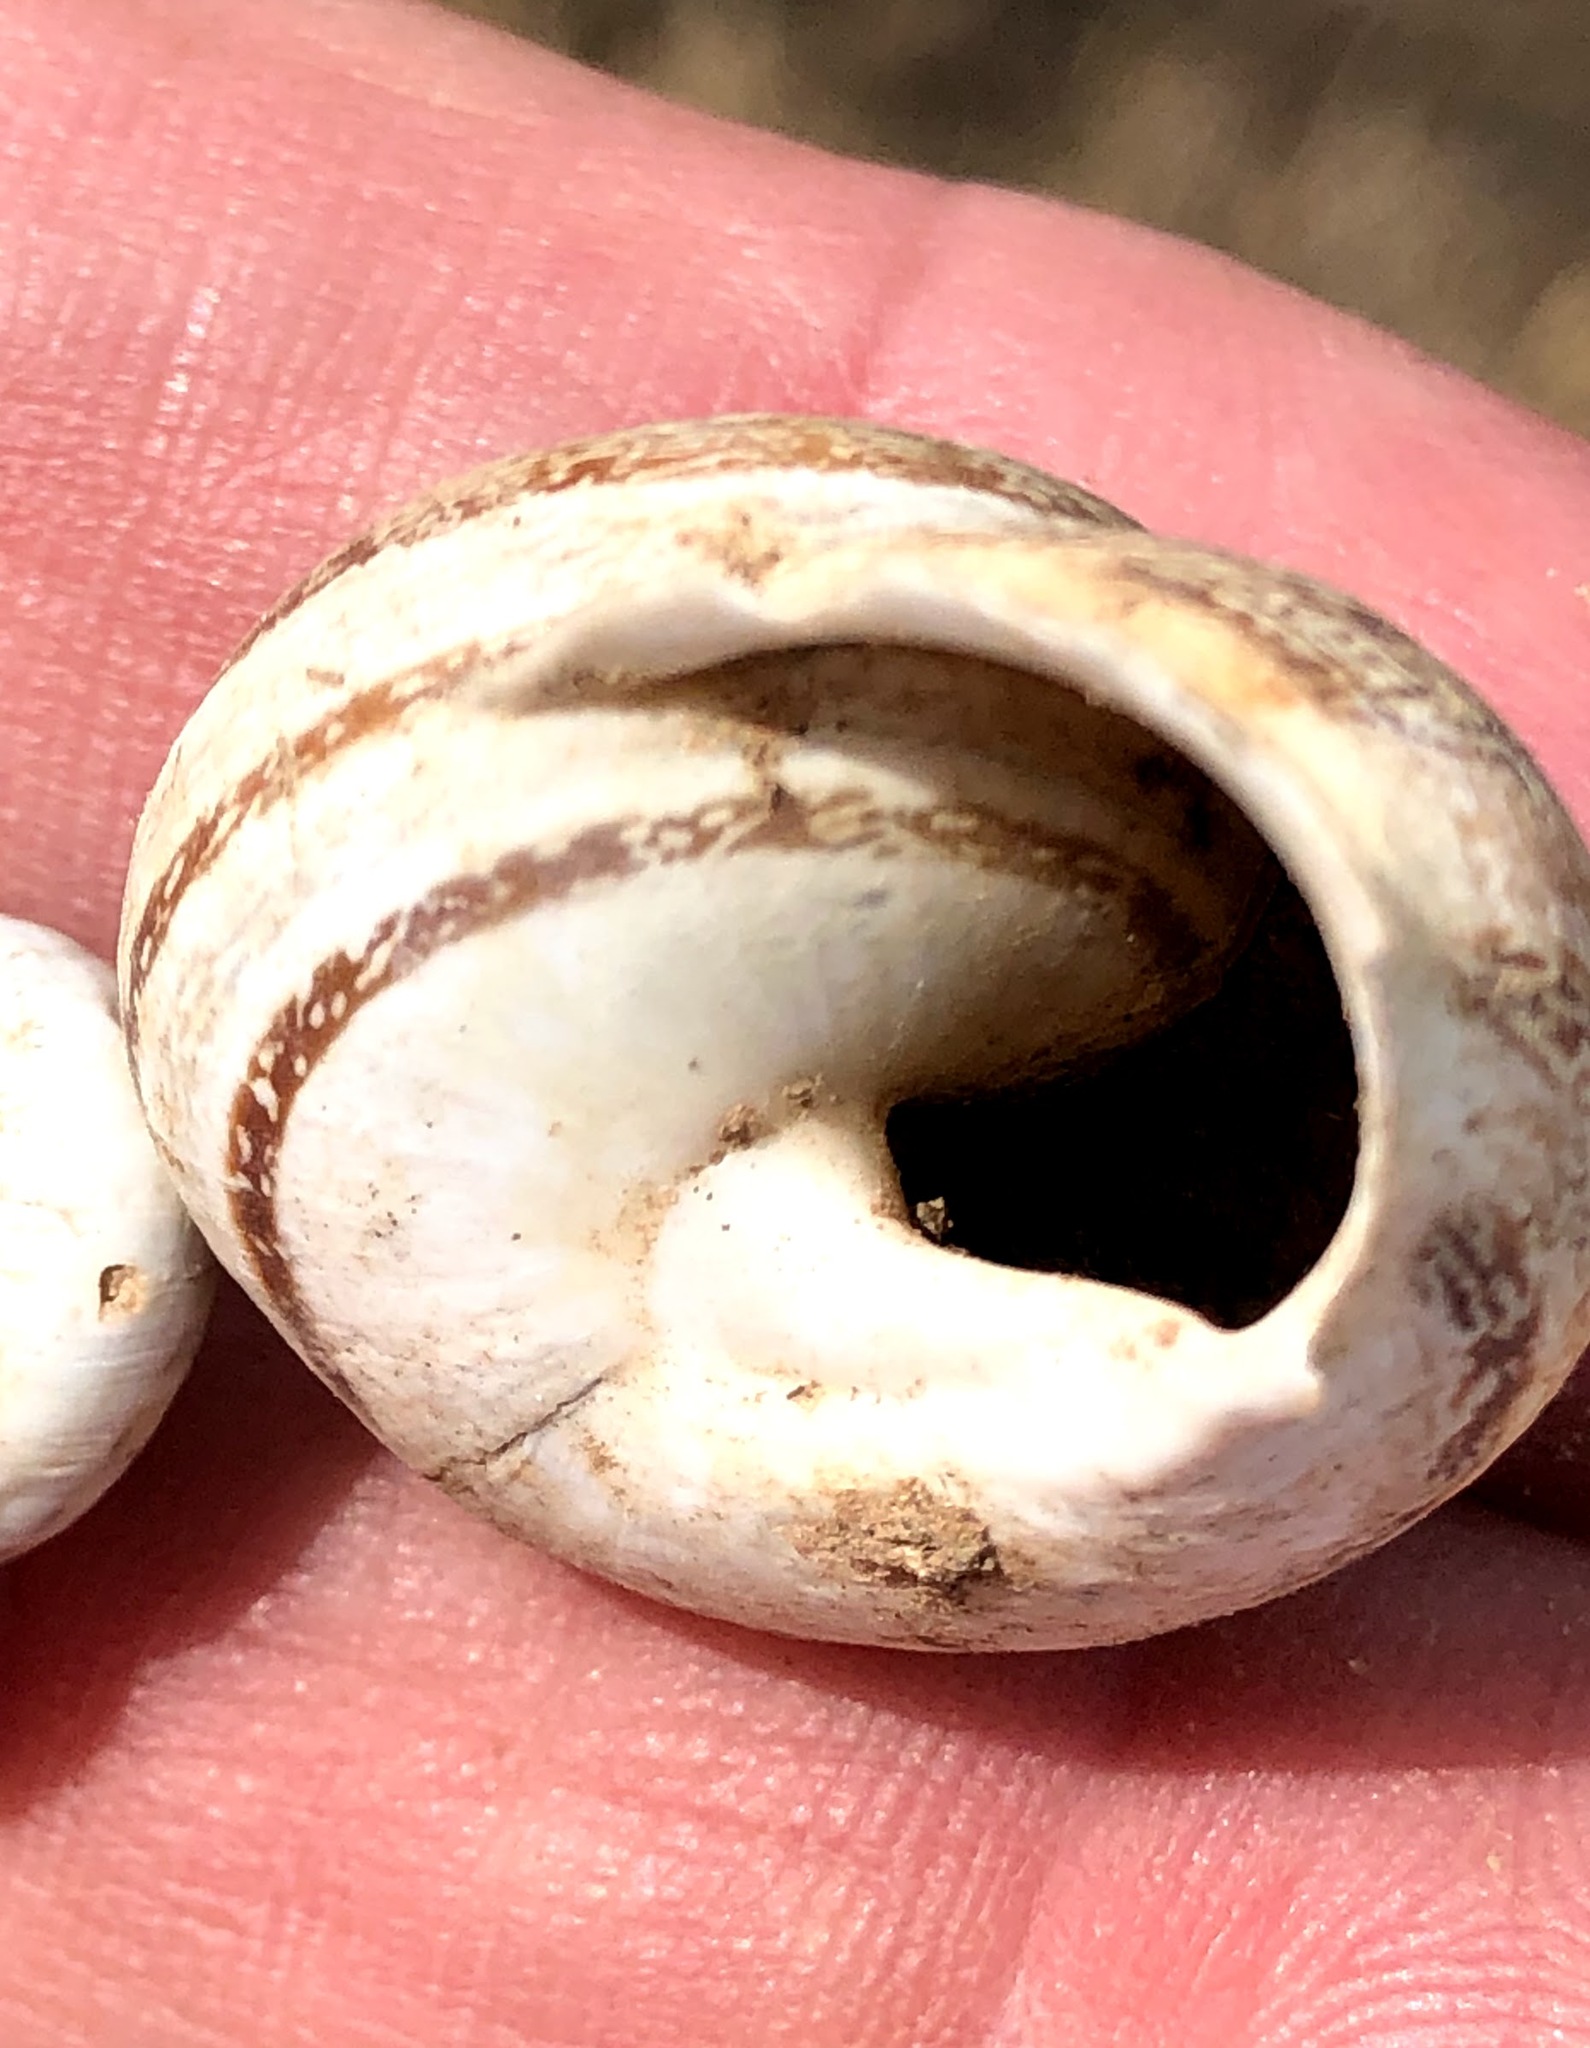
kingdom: Animalia
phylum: Mollusca
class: Gastropoda
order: Stylommatophora
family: Helicidae
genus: Eobania
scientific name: Eobania vermiculata
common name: Chocolateband snail
